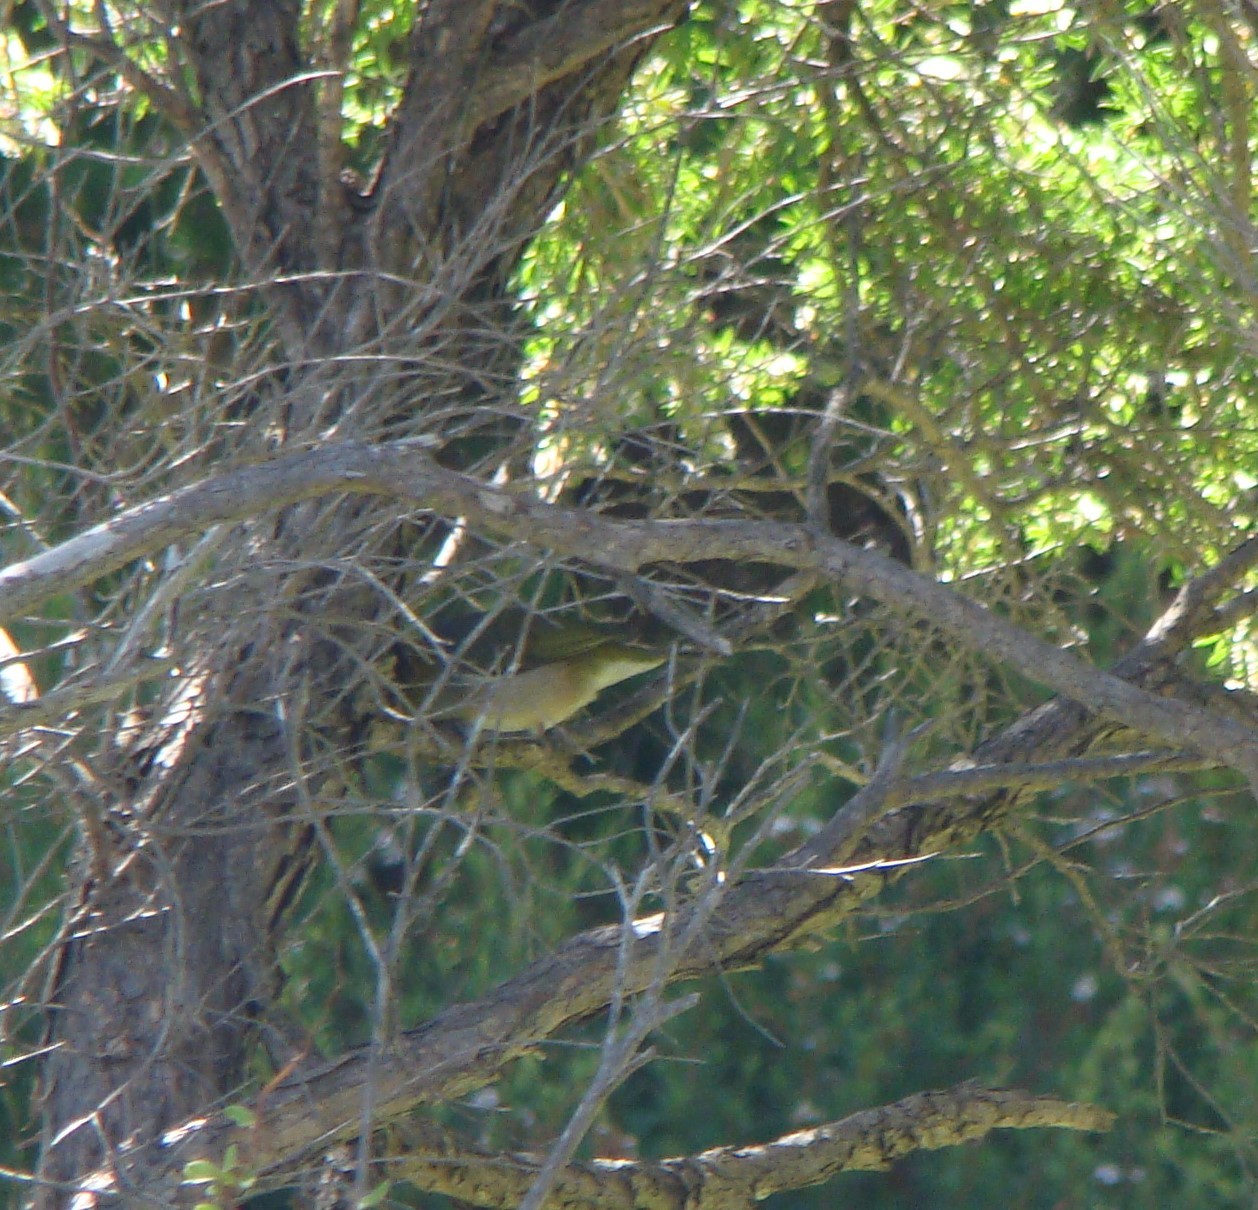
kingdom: Animalia
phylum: Chordata
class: Aves
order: Passeriformes
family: Zosteropidae
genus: Zosterops
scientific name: Zosterops lateralis
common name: Silvereye
